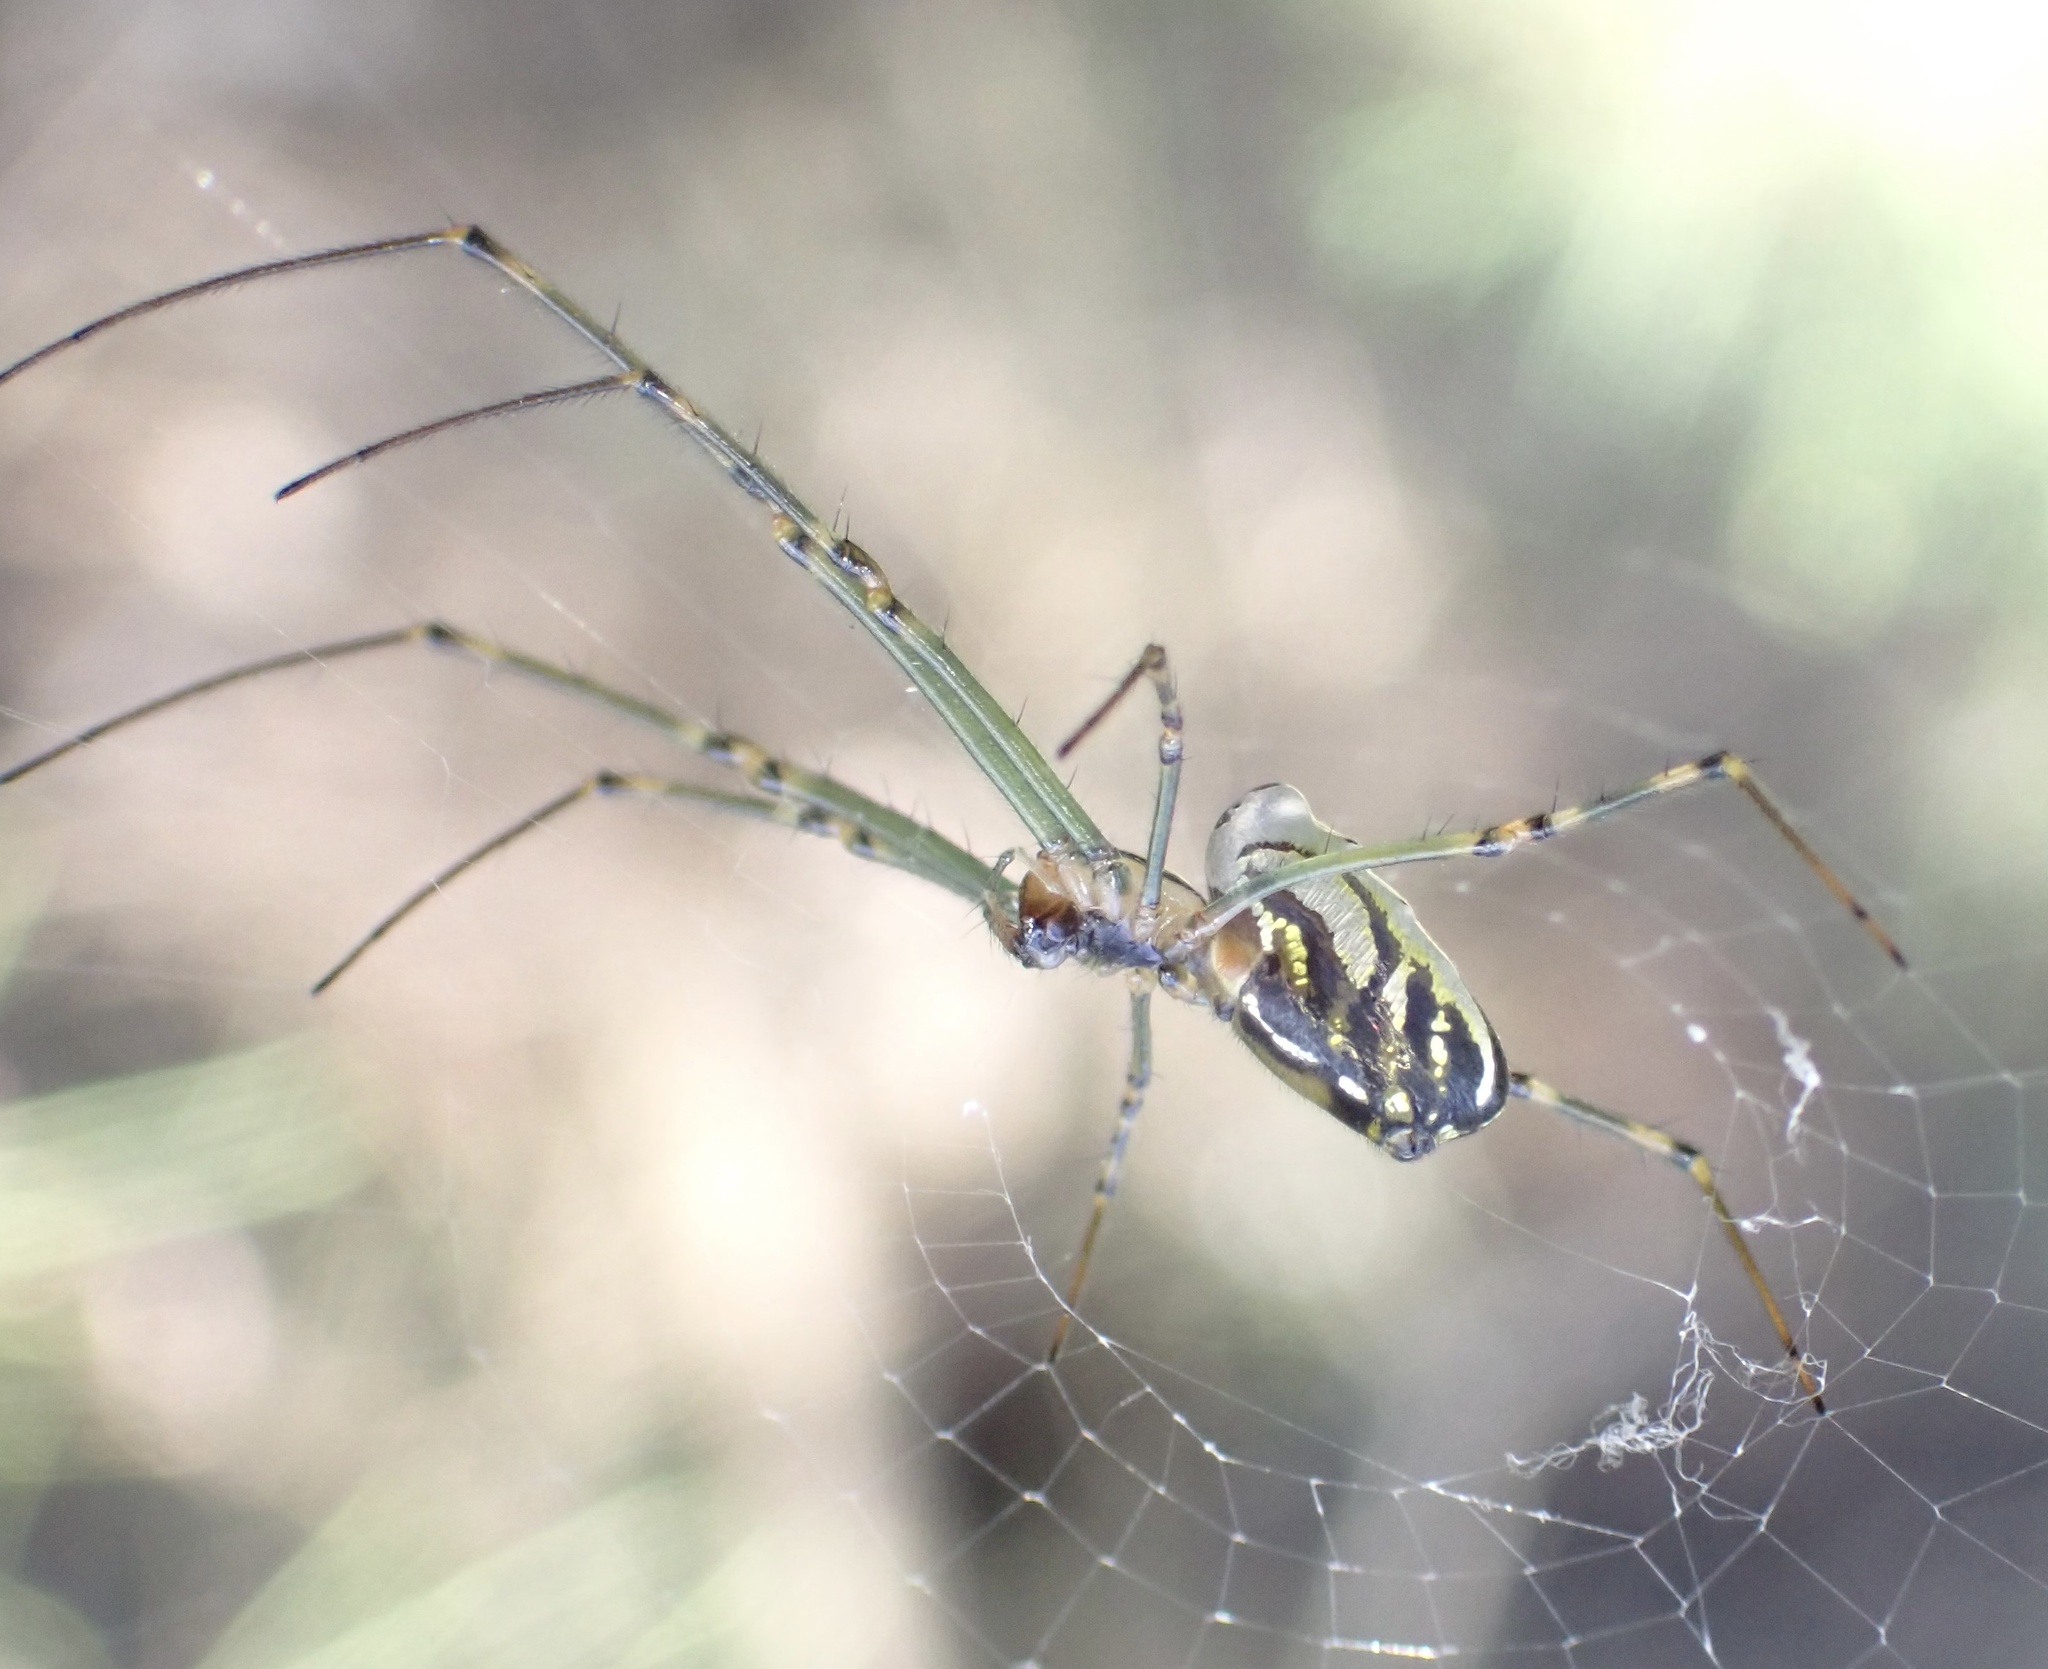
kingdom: Animalia
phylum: Arthropoda
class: Arachnida
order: Araneae
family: Tetragnathidae
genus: Leucauge
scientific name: Leucauge dromedaria
